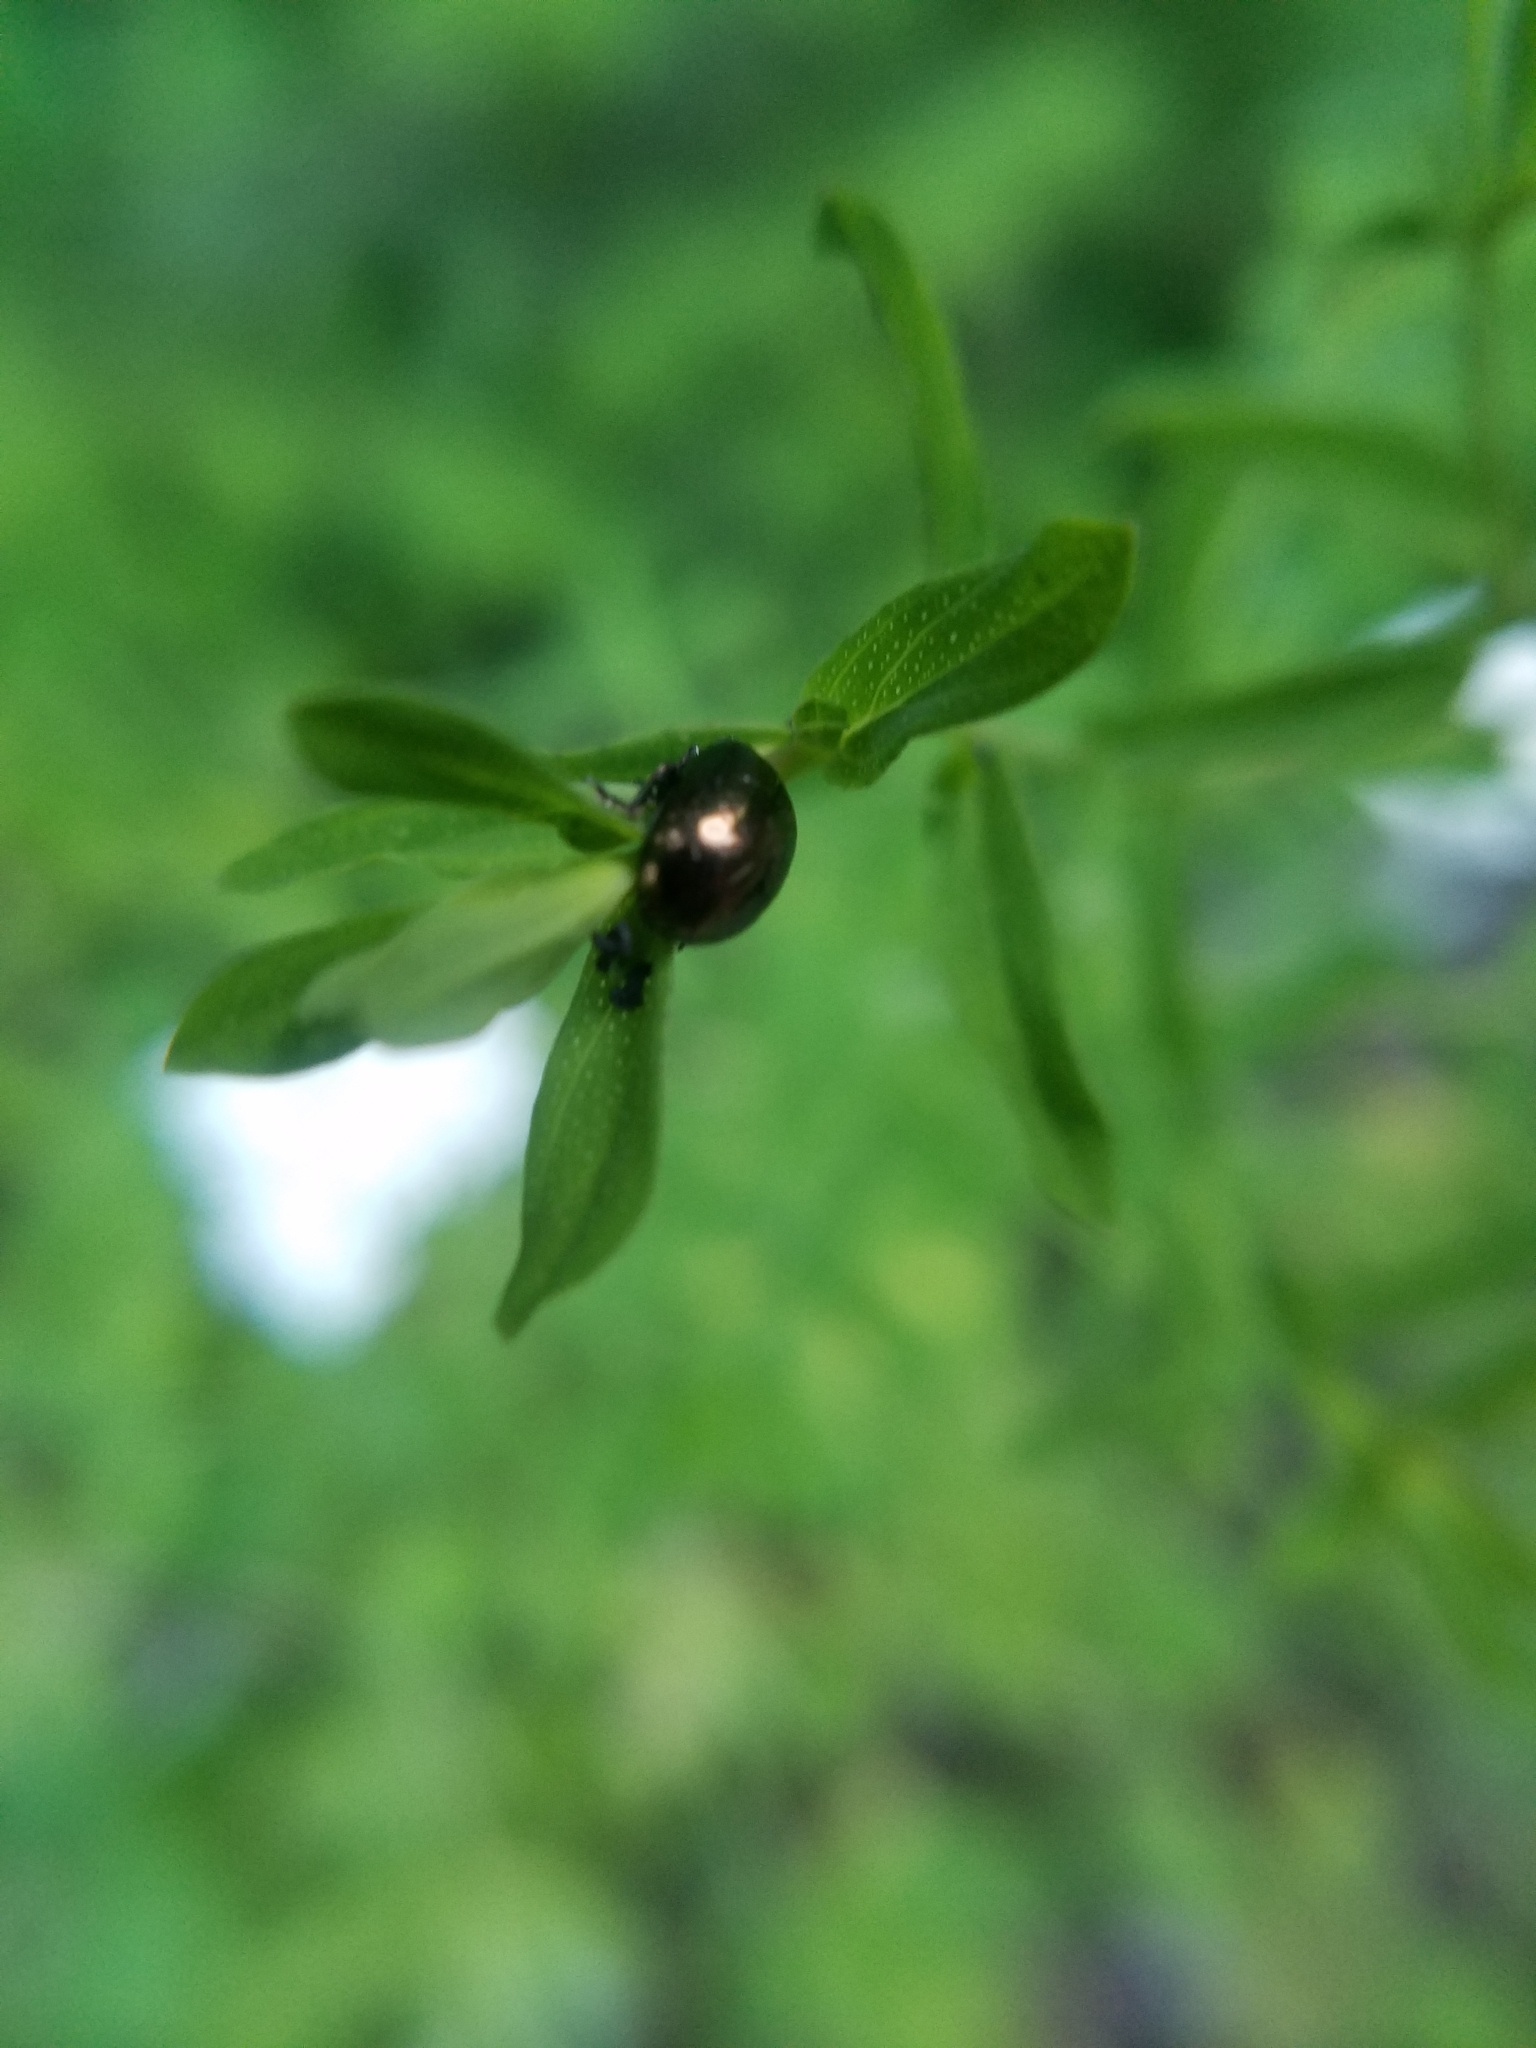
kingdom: Animalia
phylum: Arthropoda
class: Insecta
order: Coleoptera
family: Chrysomelidae
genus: Chrysolina
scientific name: Chrysolina hyperici
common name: St. johnswort beetle
